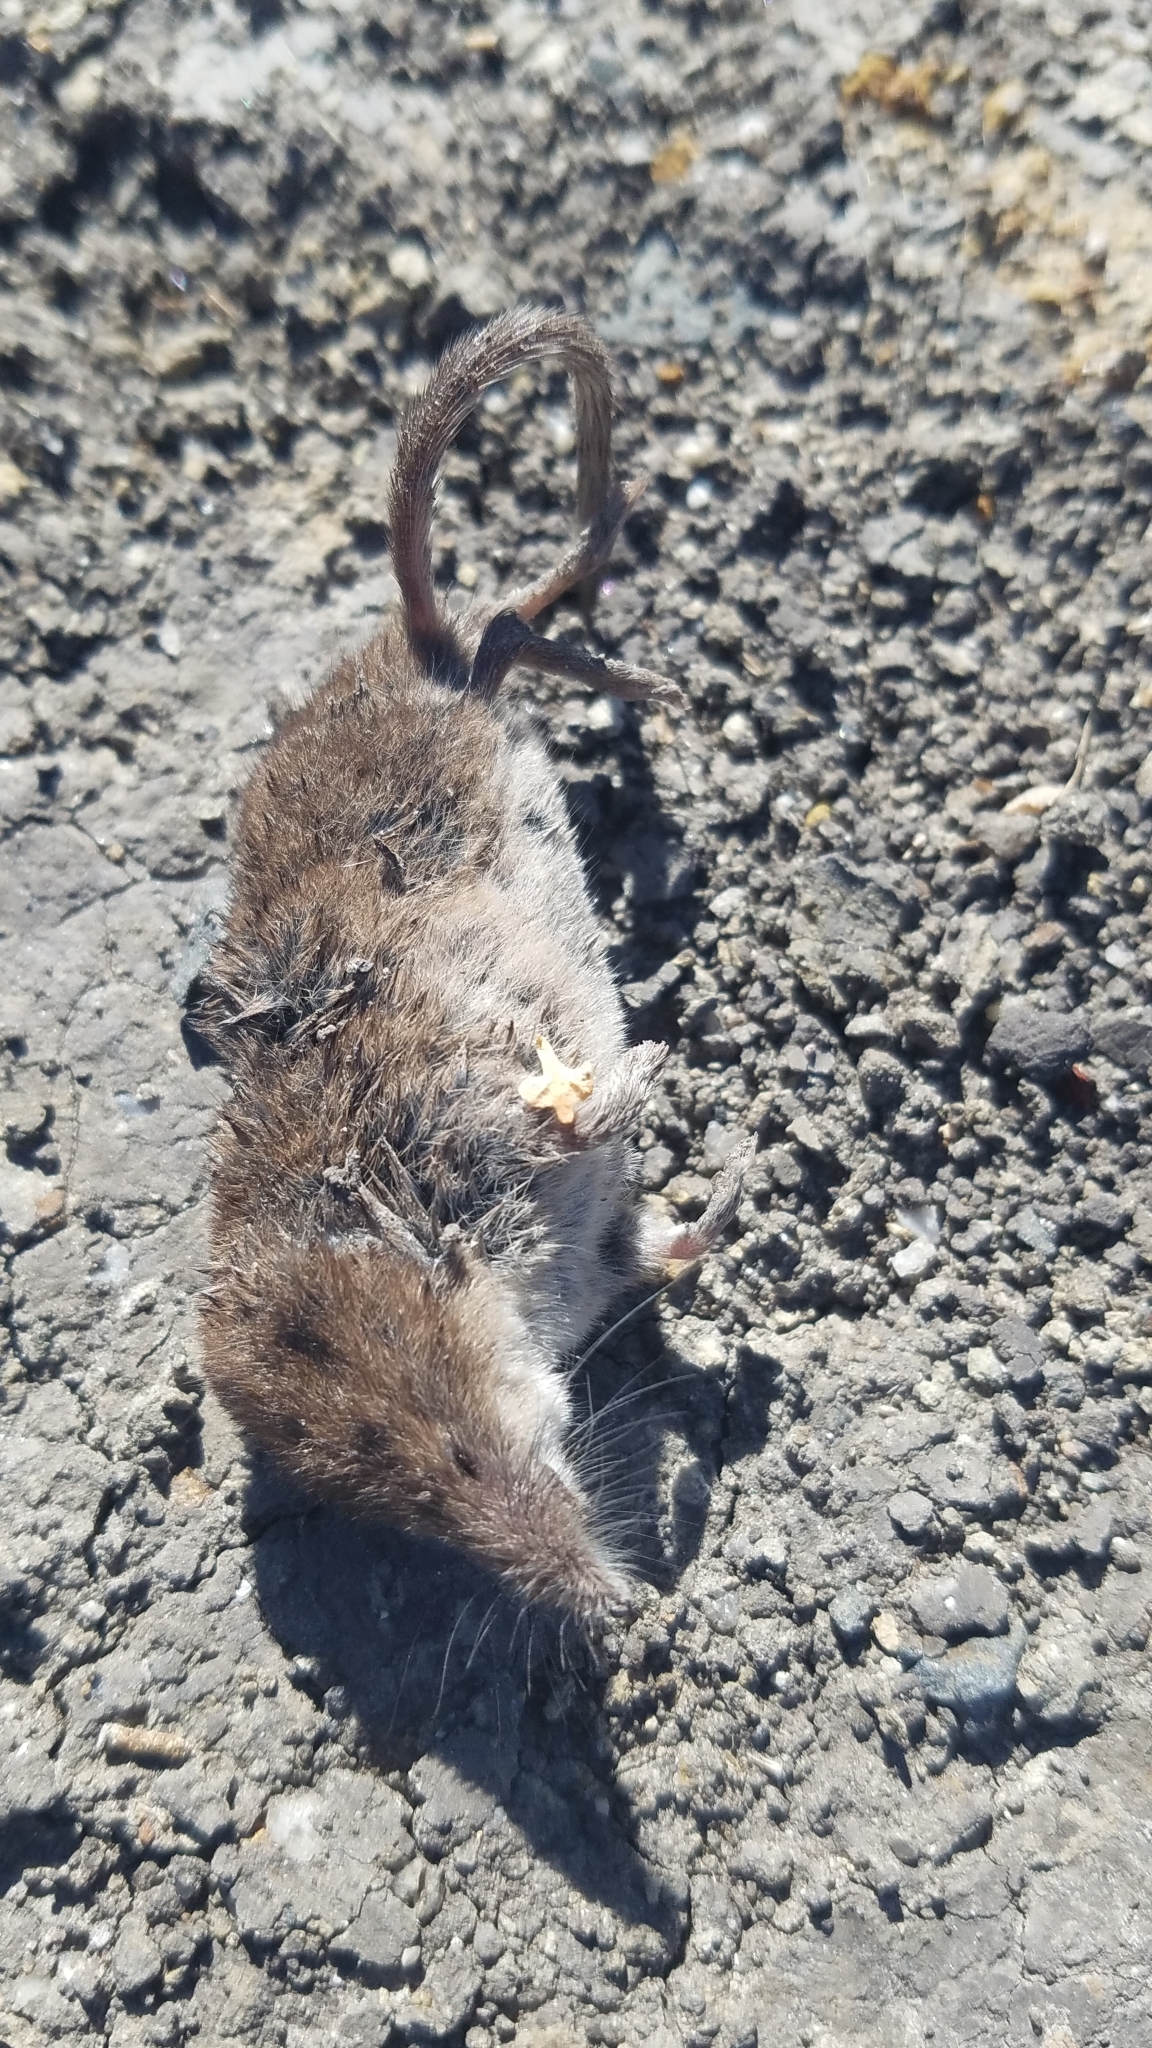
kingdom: Animalia
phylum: Chordata
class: Mammalia
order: Soricomorpha
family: Soricidae
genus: Sorex
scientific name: Sorex
